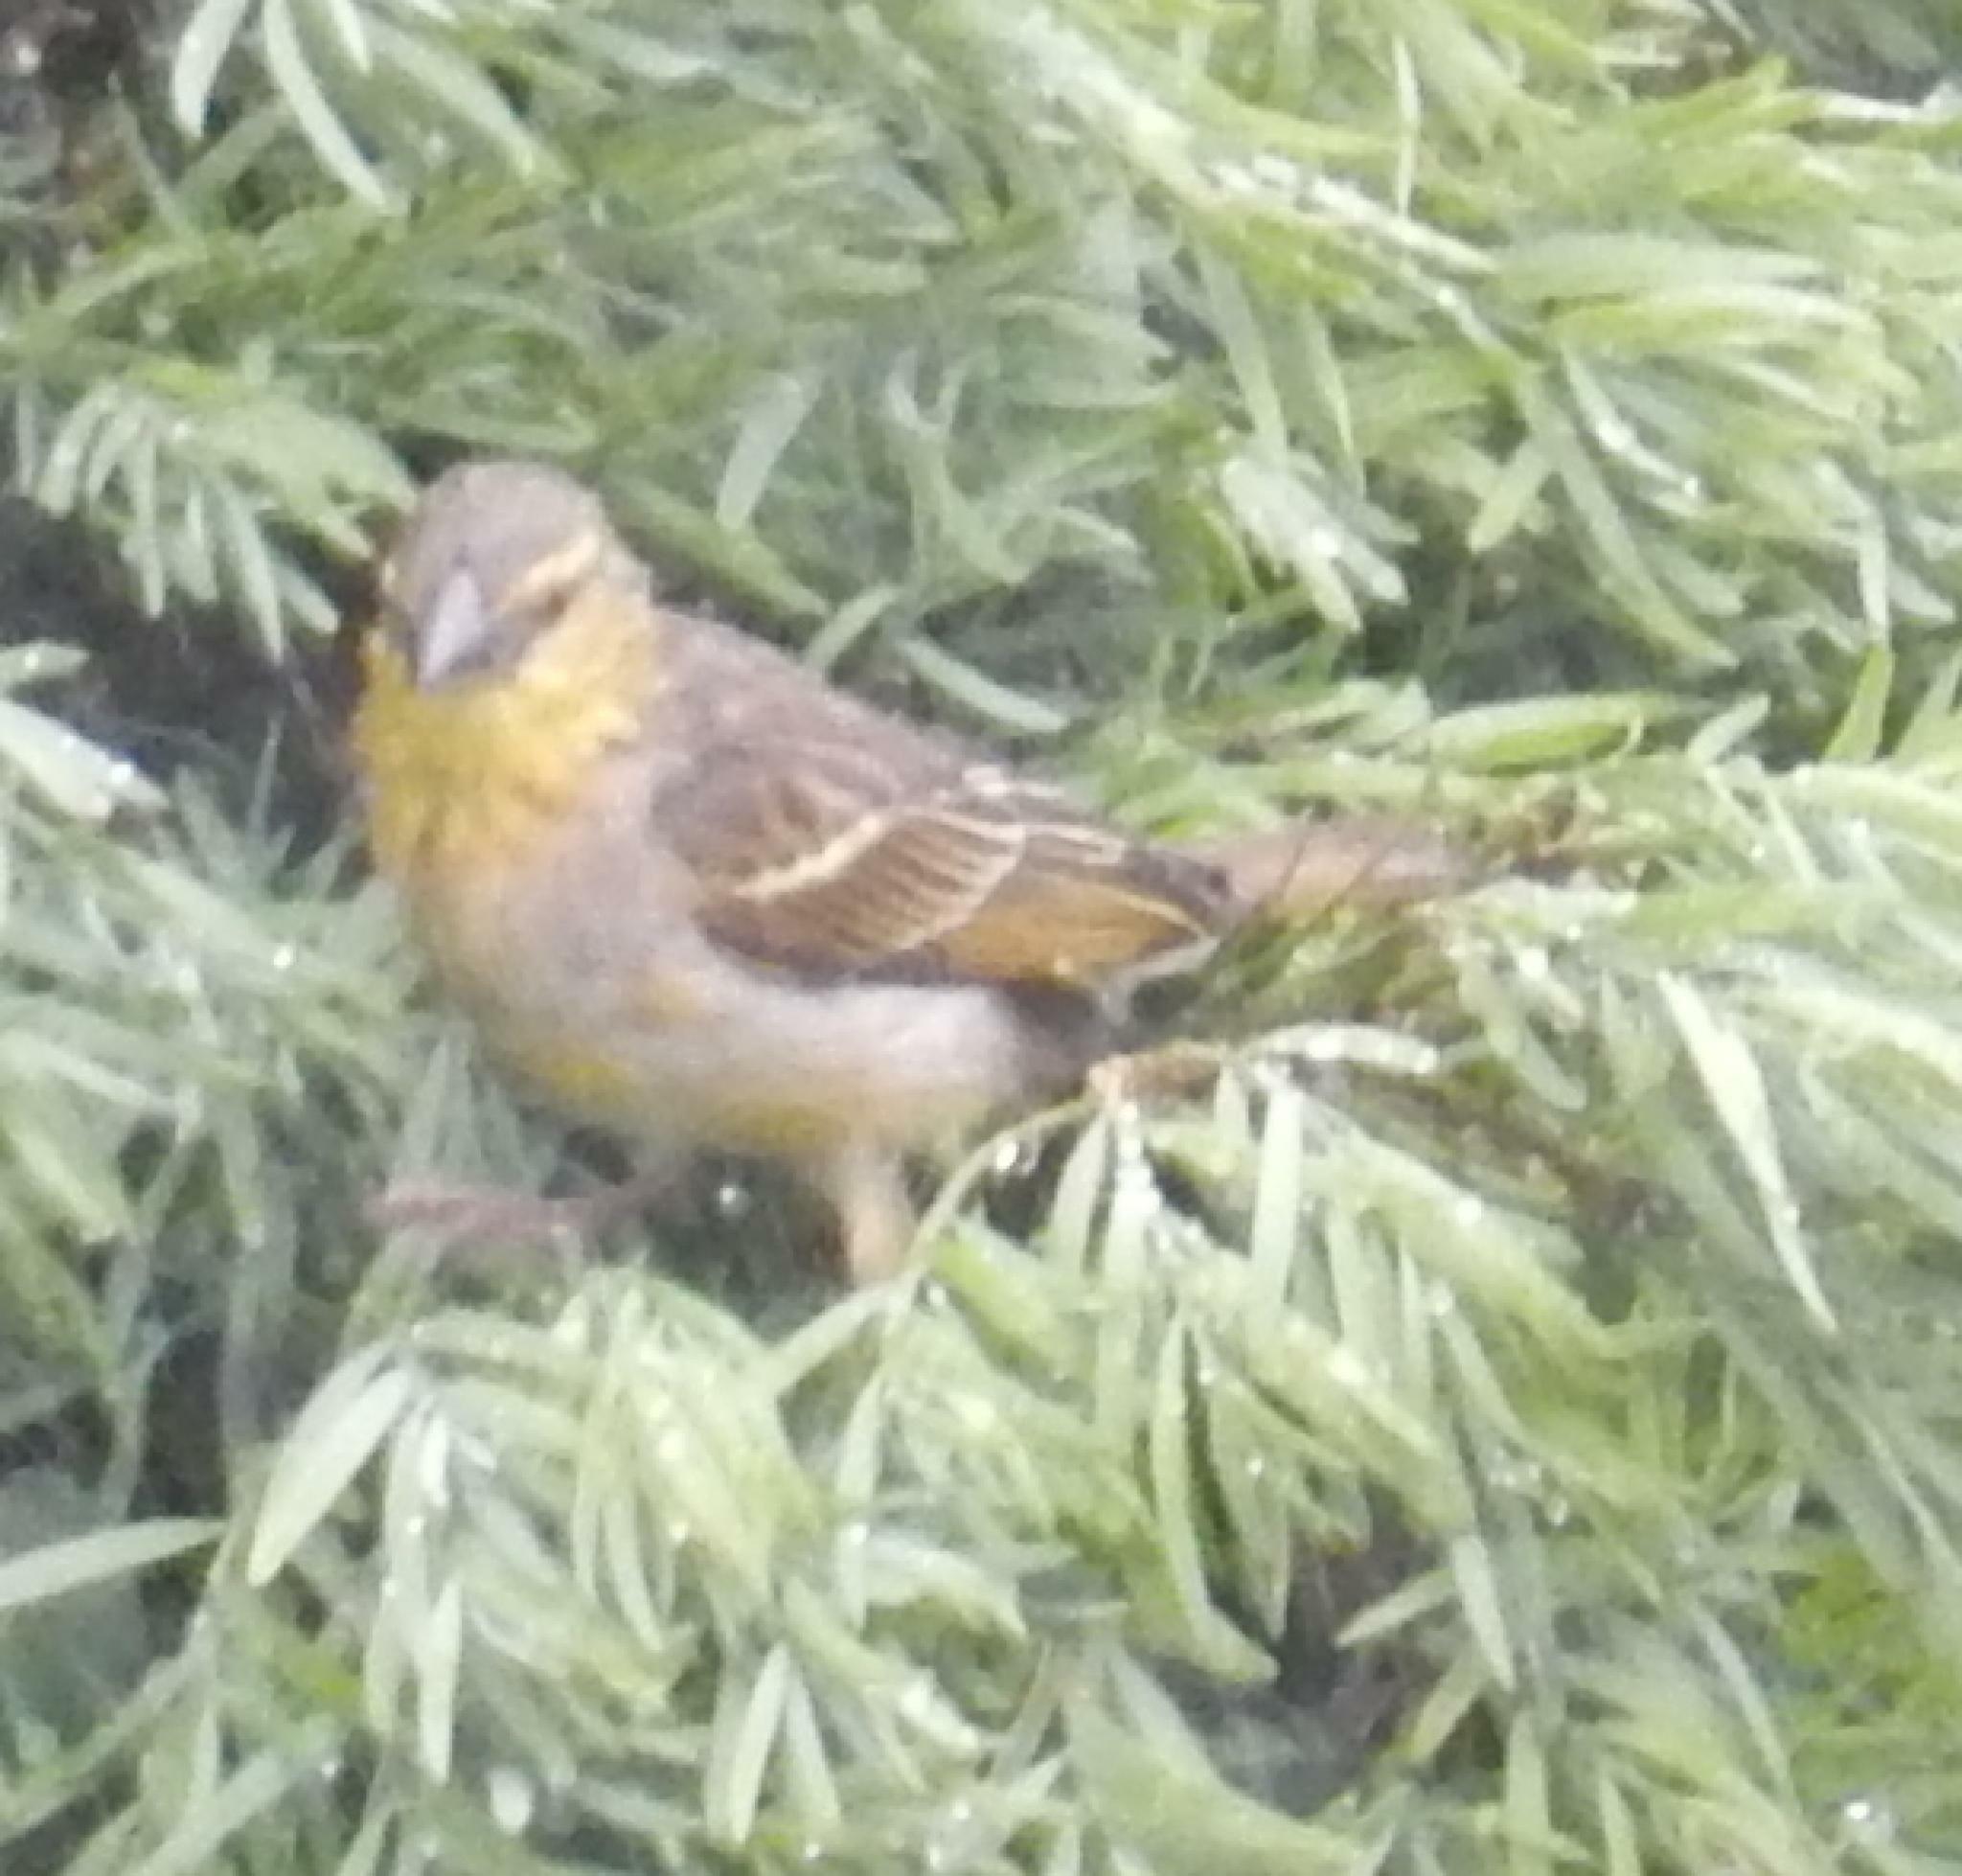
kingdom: Animalia
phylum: Chordata
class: Aves
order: Passeriformes
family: Ploceidae
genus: Ploceus
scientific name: Ploceus cucullatus
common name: Village weaver
